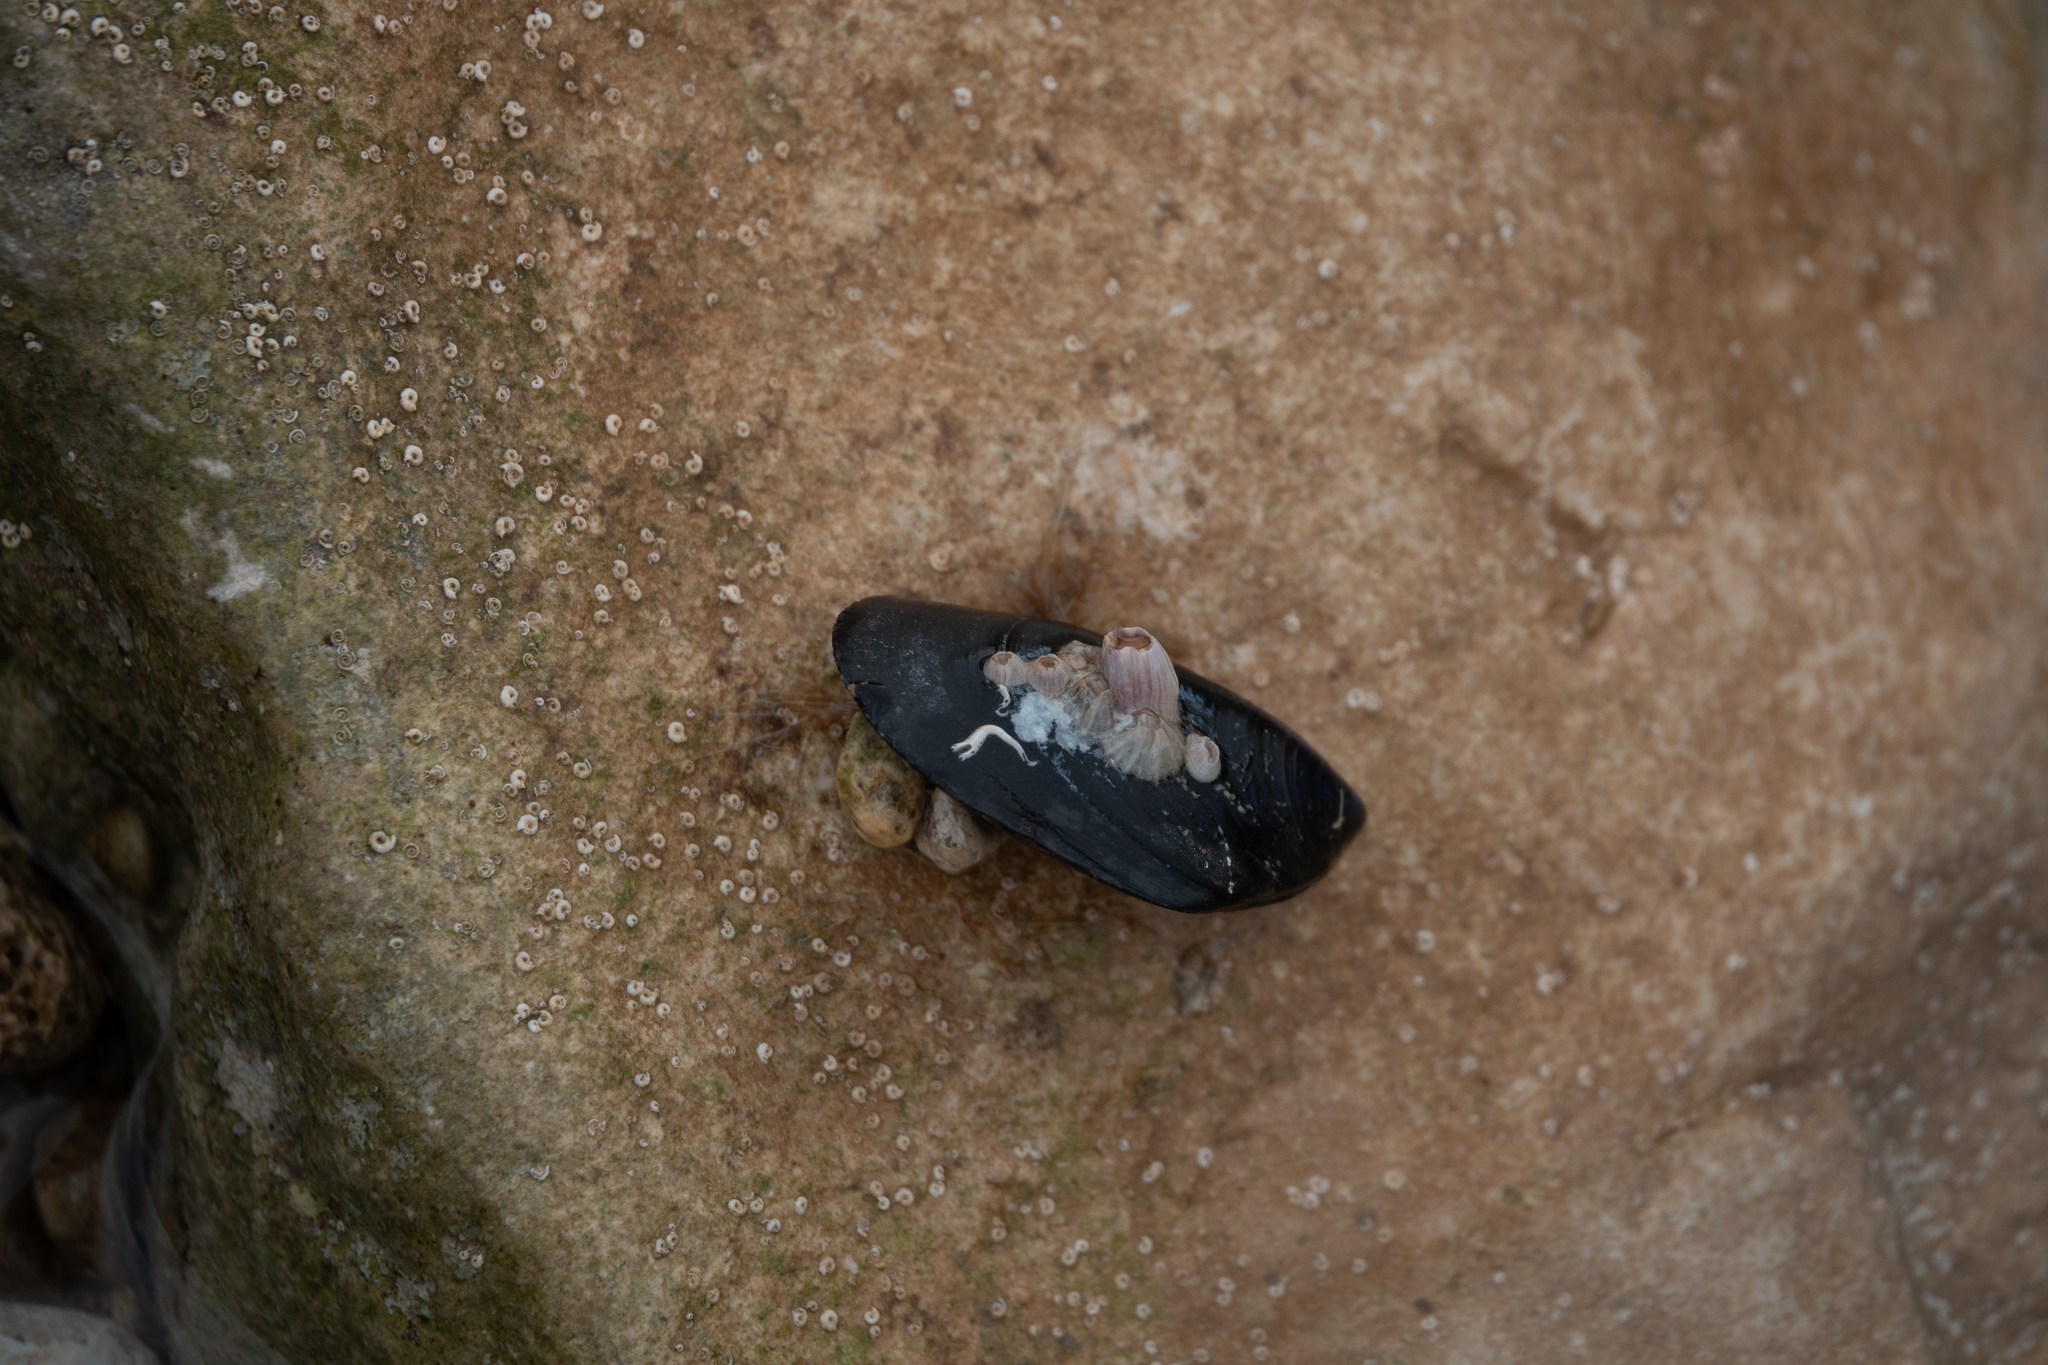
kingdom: Animalia
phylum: Mollusca
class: Bivalvia
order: Mytilida
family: Mytilidae
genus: Mytilus
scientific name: Mytilus galloprovincialis
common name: Mediterranean mussel
